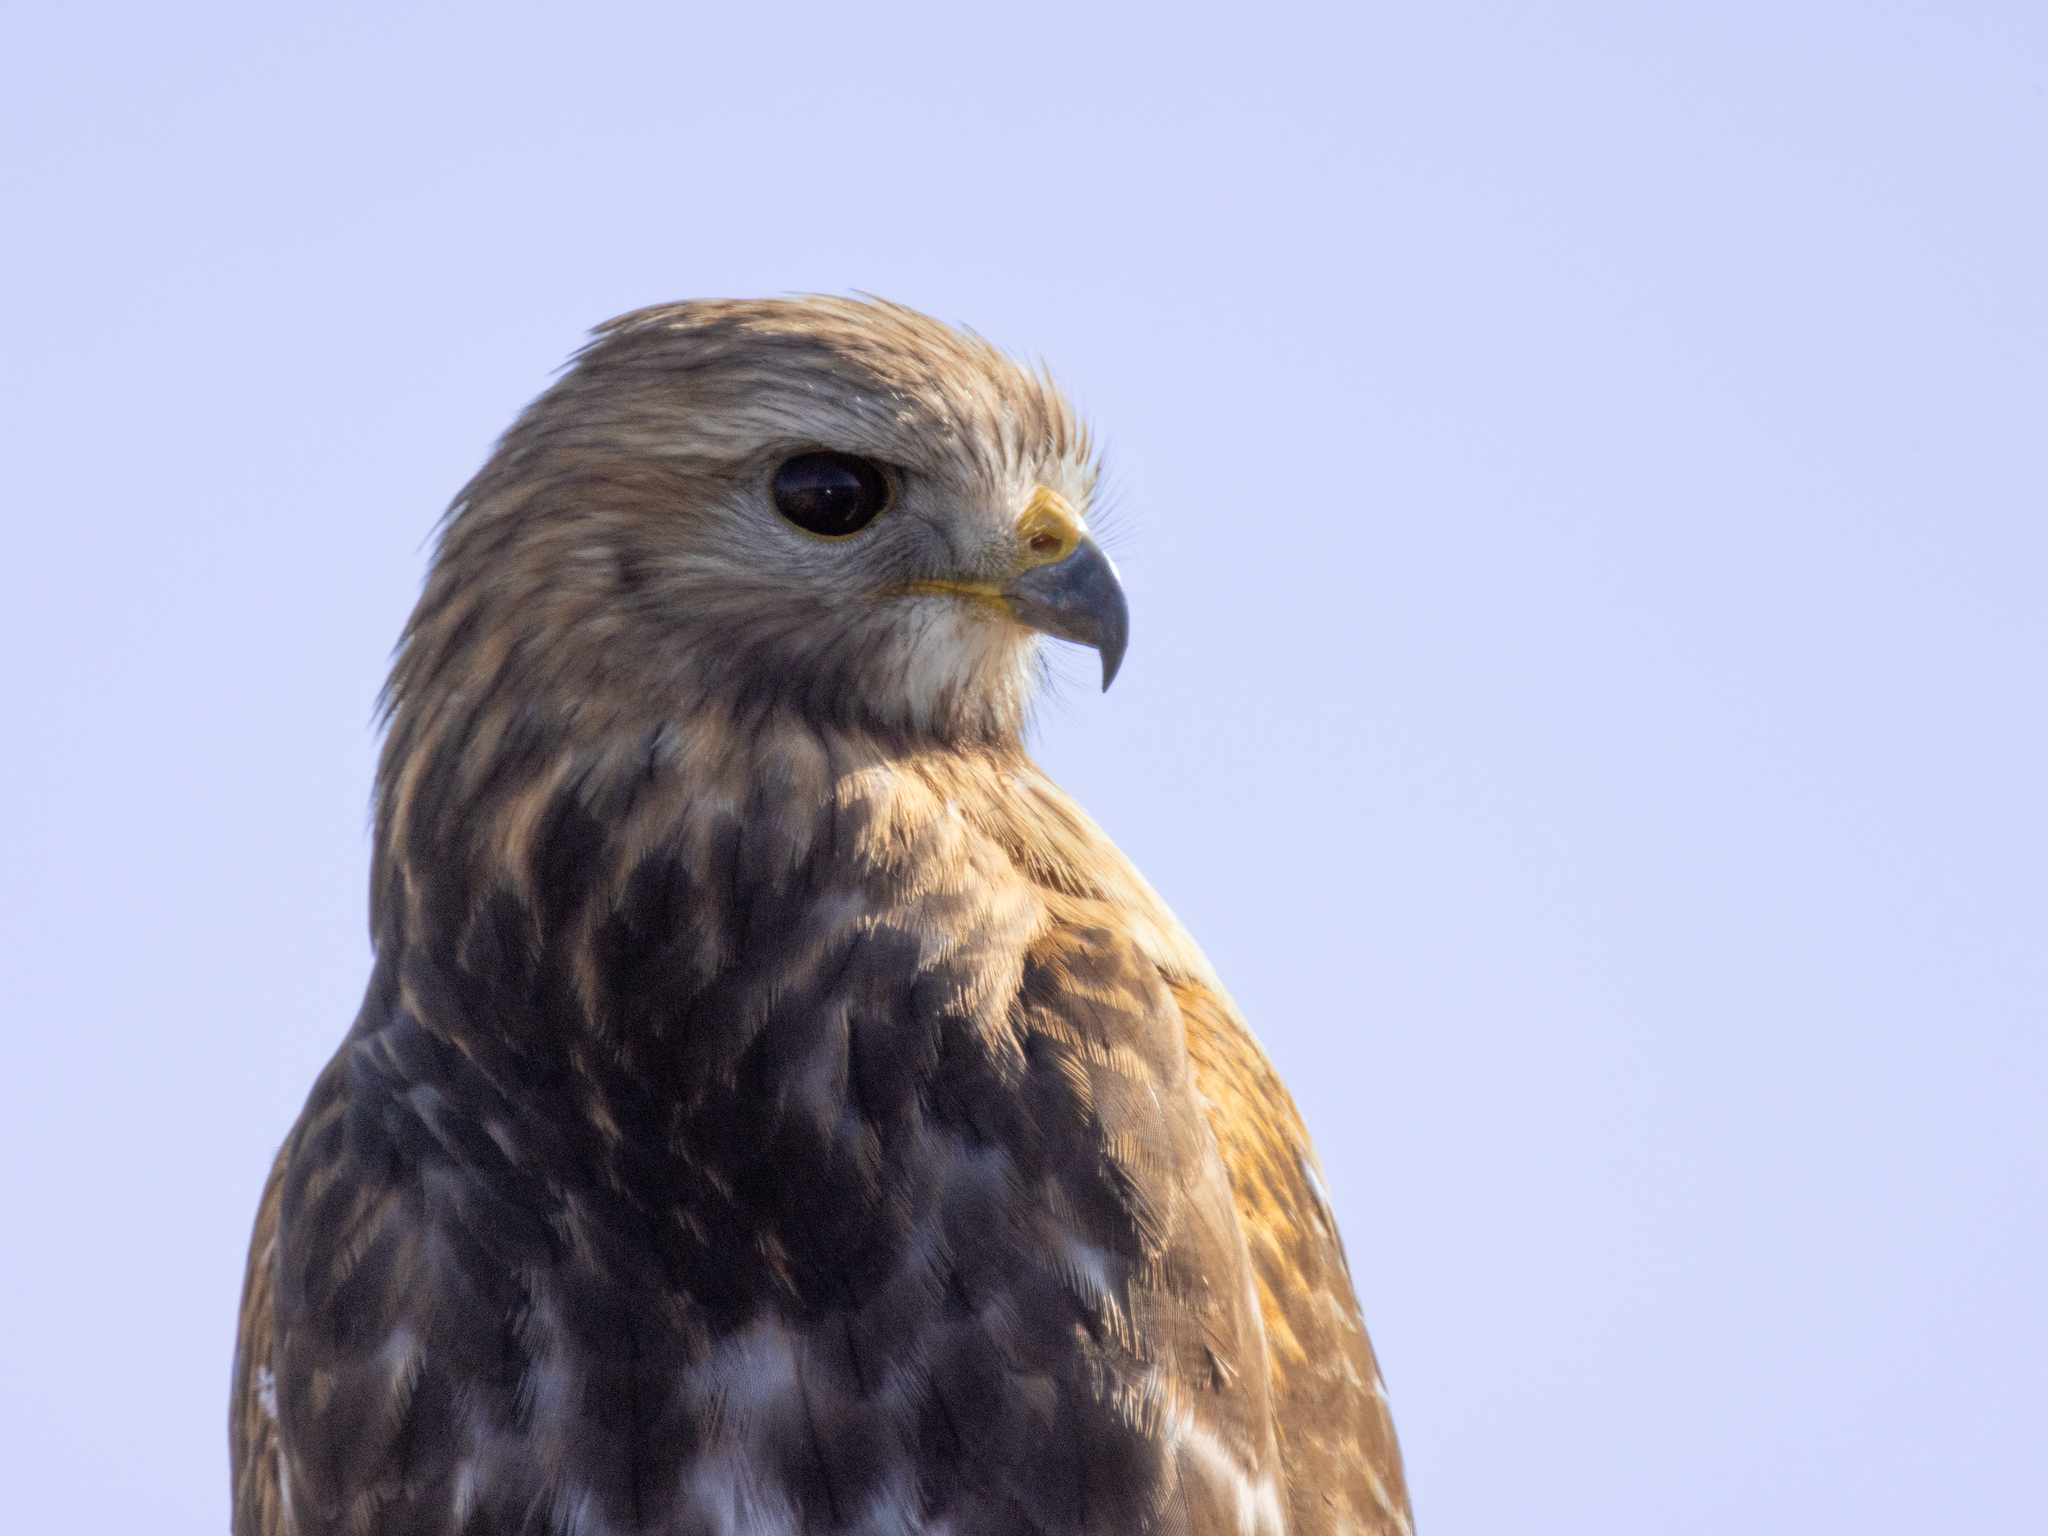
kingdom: Animalia
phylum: Chordata
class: Aves
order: Accipitriformes
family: Accipitridae
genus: Buteo
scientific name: Buteo lineatus
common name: Red-shouldered hawk
